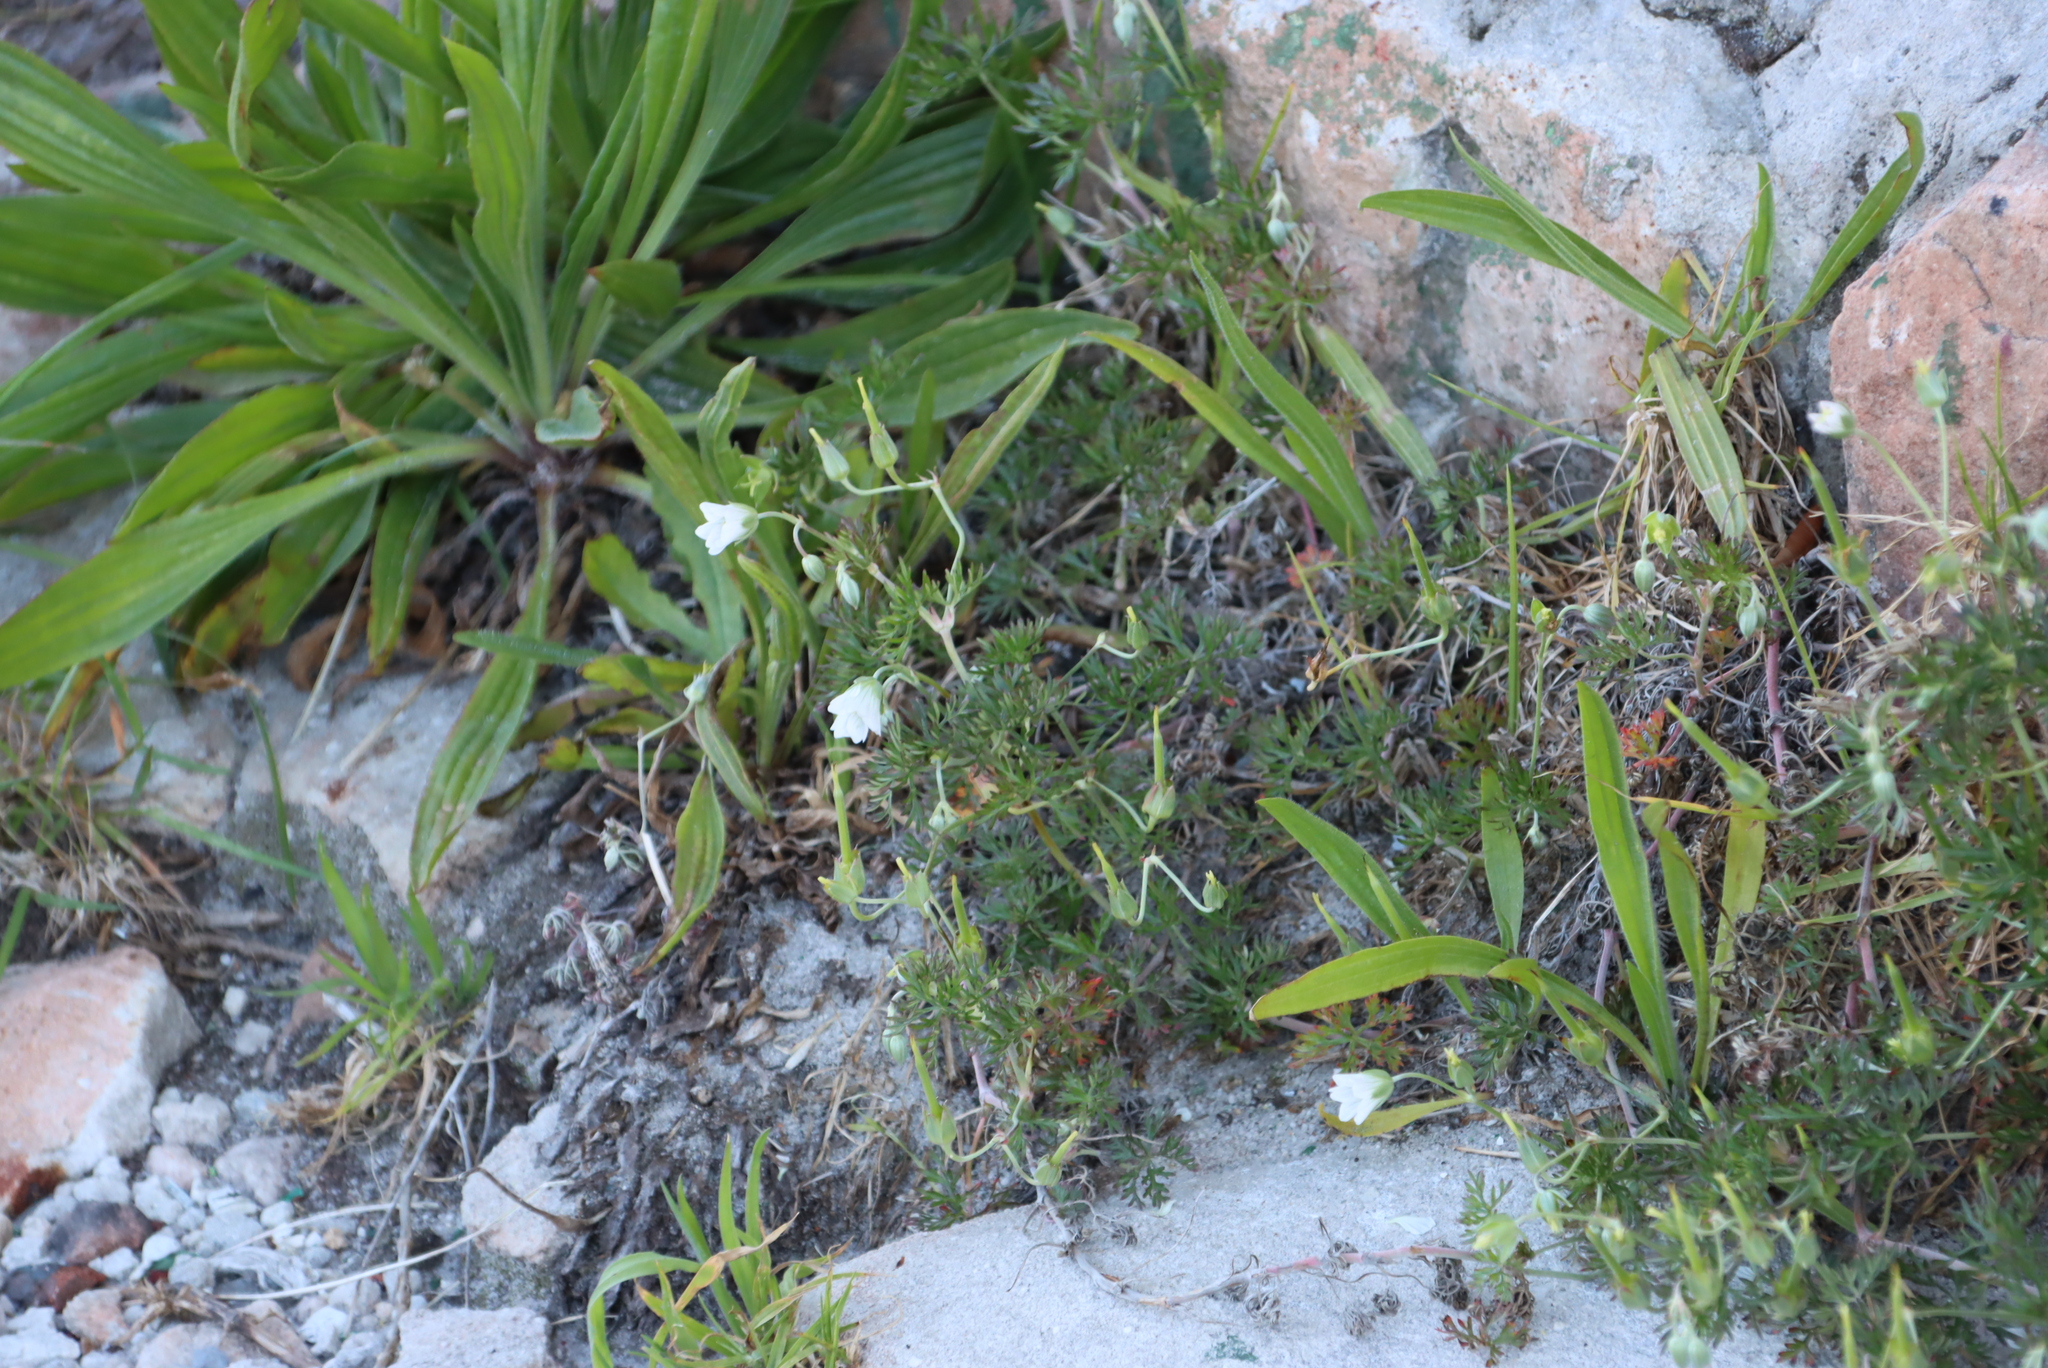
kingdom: Plantae
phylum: Tracheophyta
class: Magnoliopsida
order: Lamiales
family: Plantaginaceae
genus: Plantago
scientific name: Plantago lanceolata
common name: Ribwort plantain
